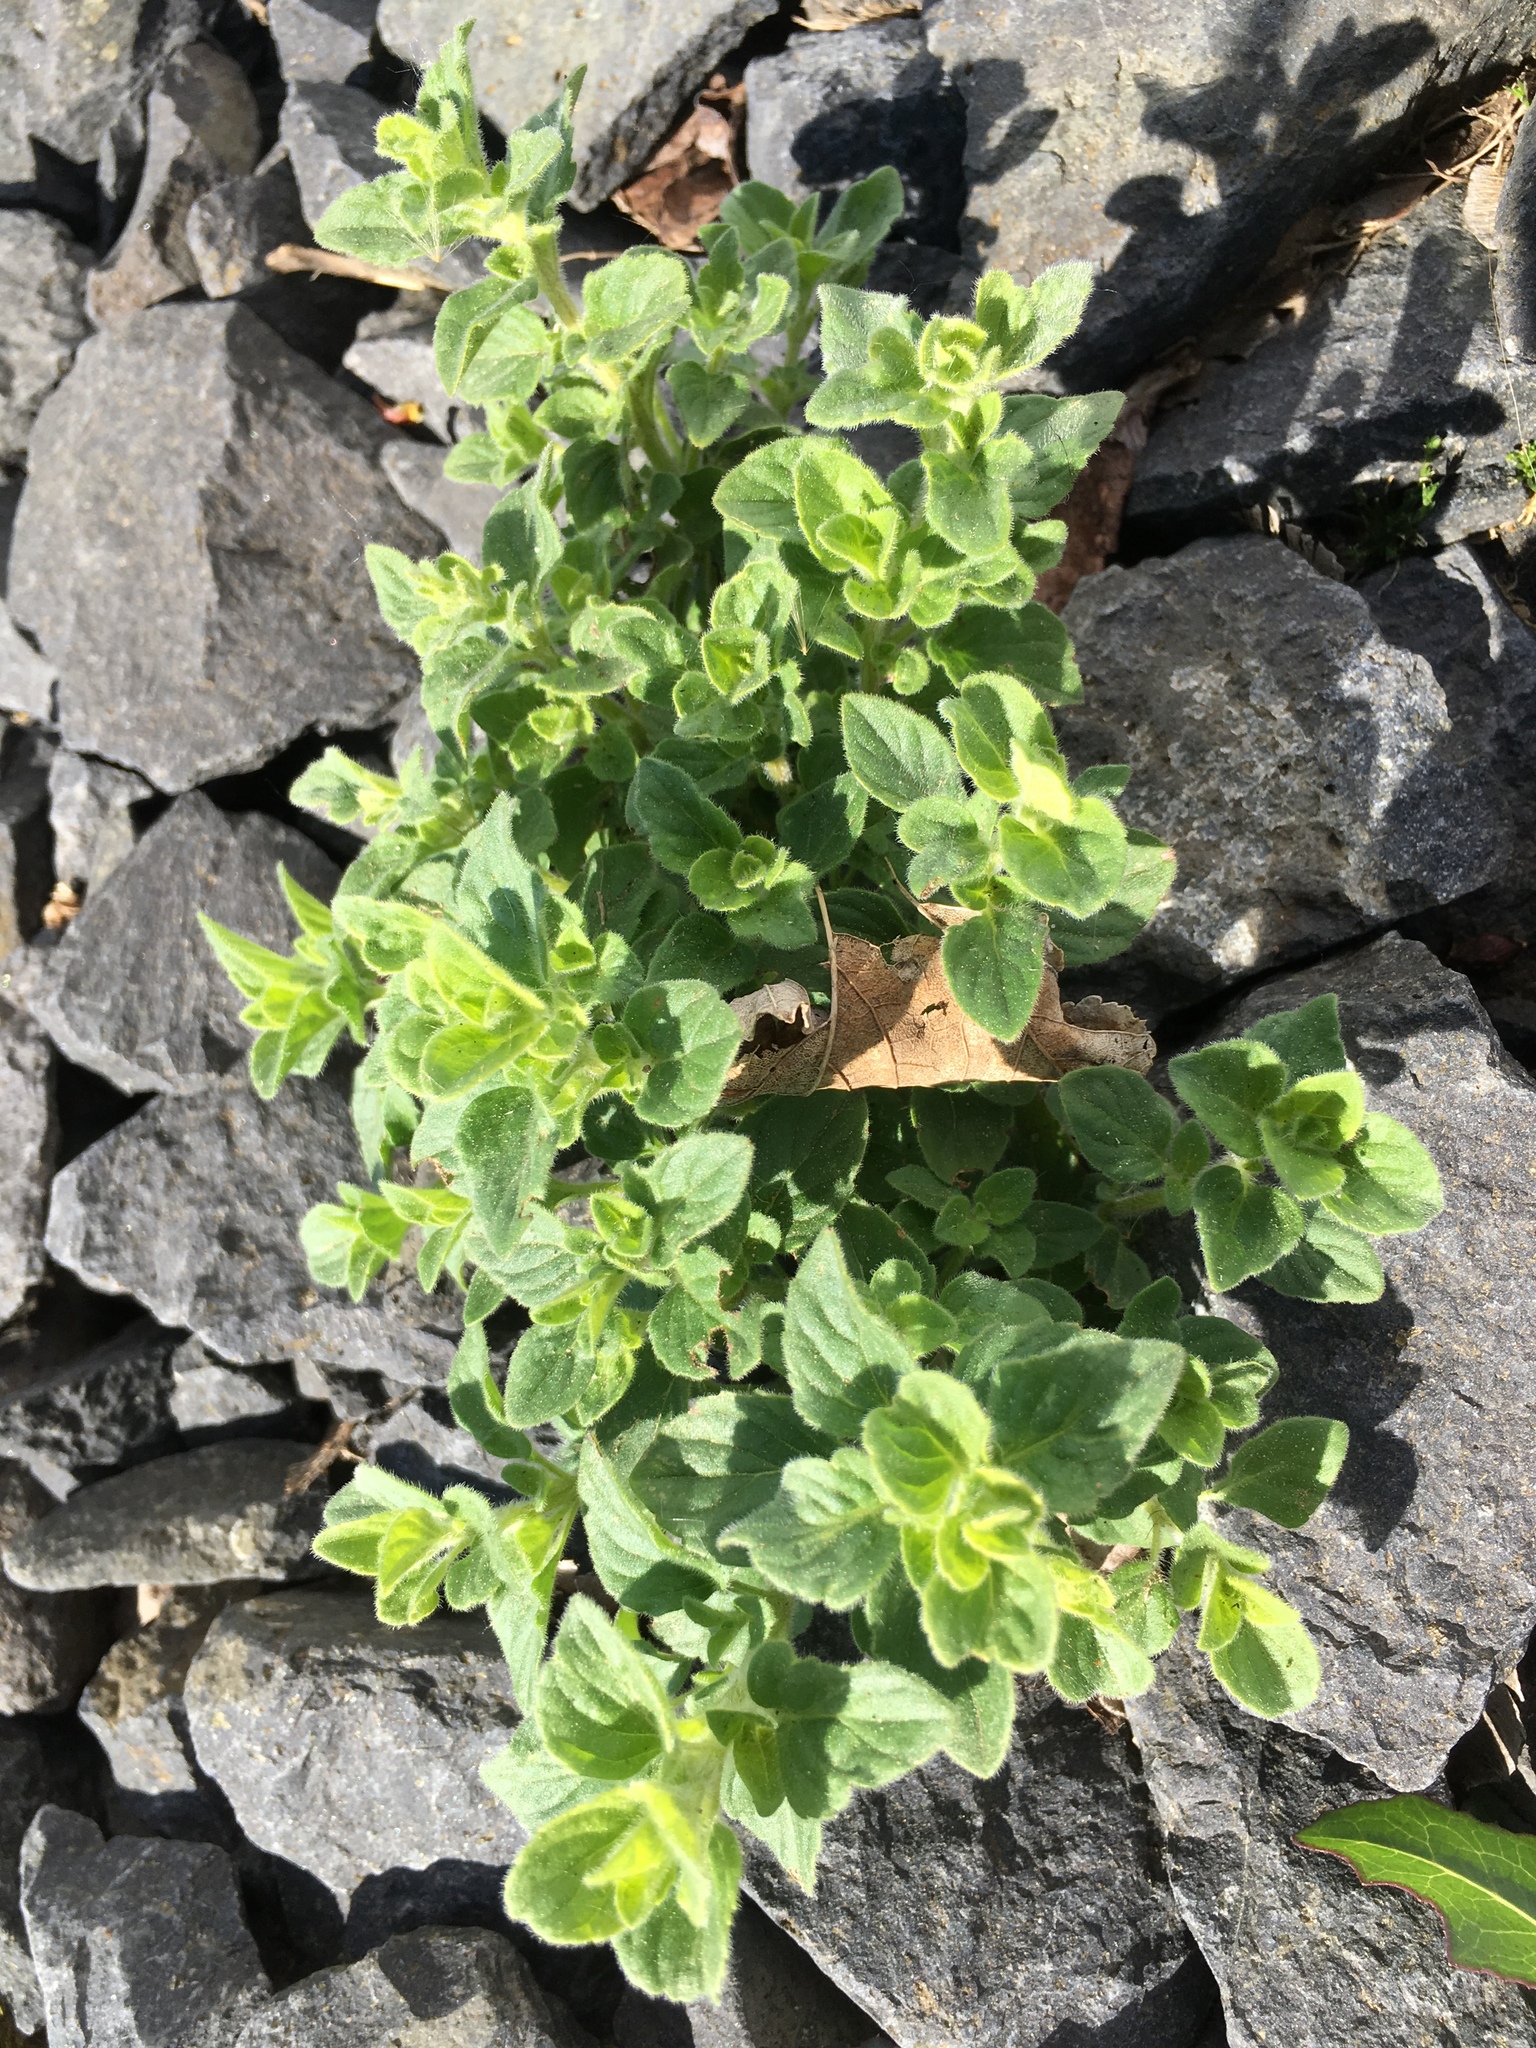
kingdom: Plantae
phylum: Tracheophyta
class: Magnoliopsida
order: Lamiales
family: Lamiaceae
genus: Origanum
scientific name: Origanum vulgare
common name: Wild marjoram
